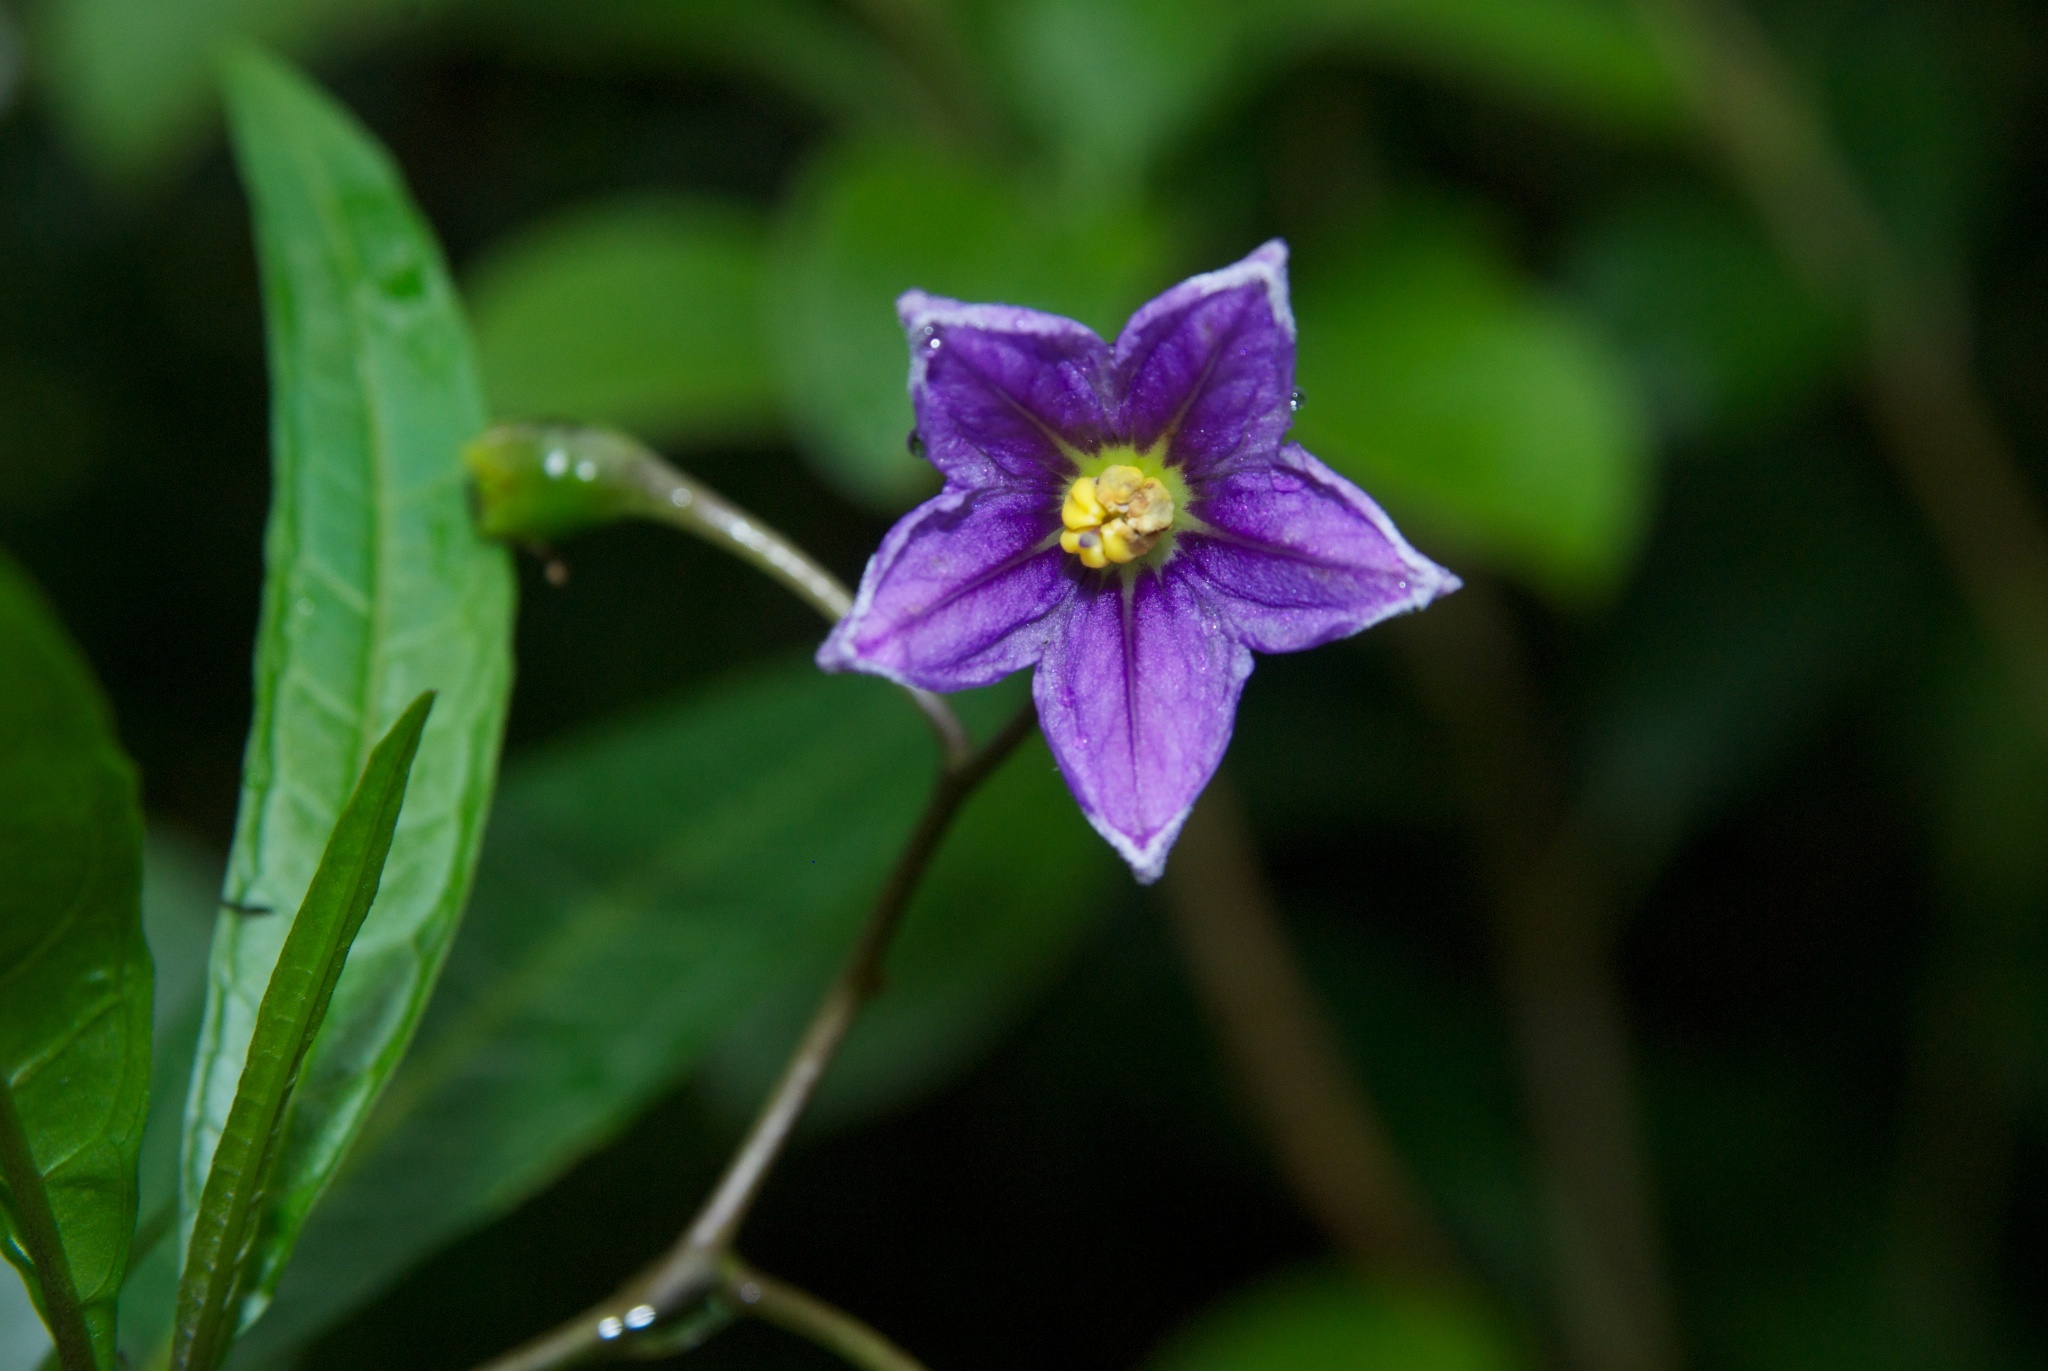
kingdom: Plantae
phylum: Tracheophyta
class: Magnoliopsida
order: Solanales
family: Solanaceae
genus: Solanum
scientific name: Solanum aviculare
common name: New zealand nightshade
